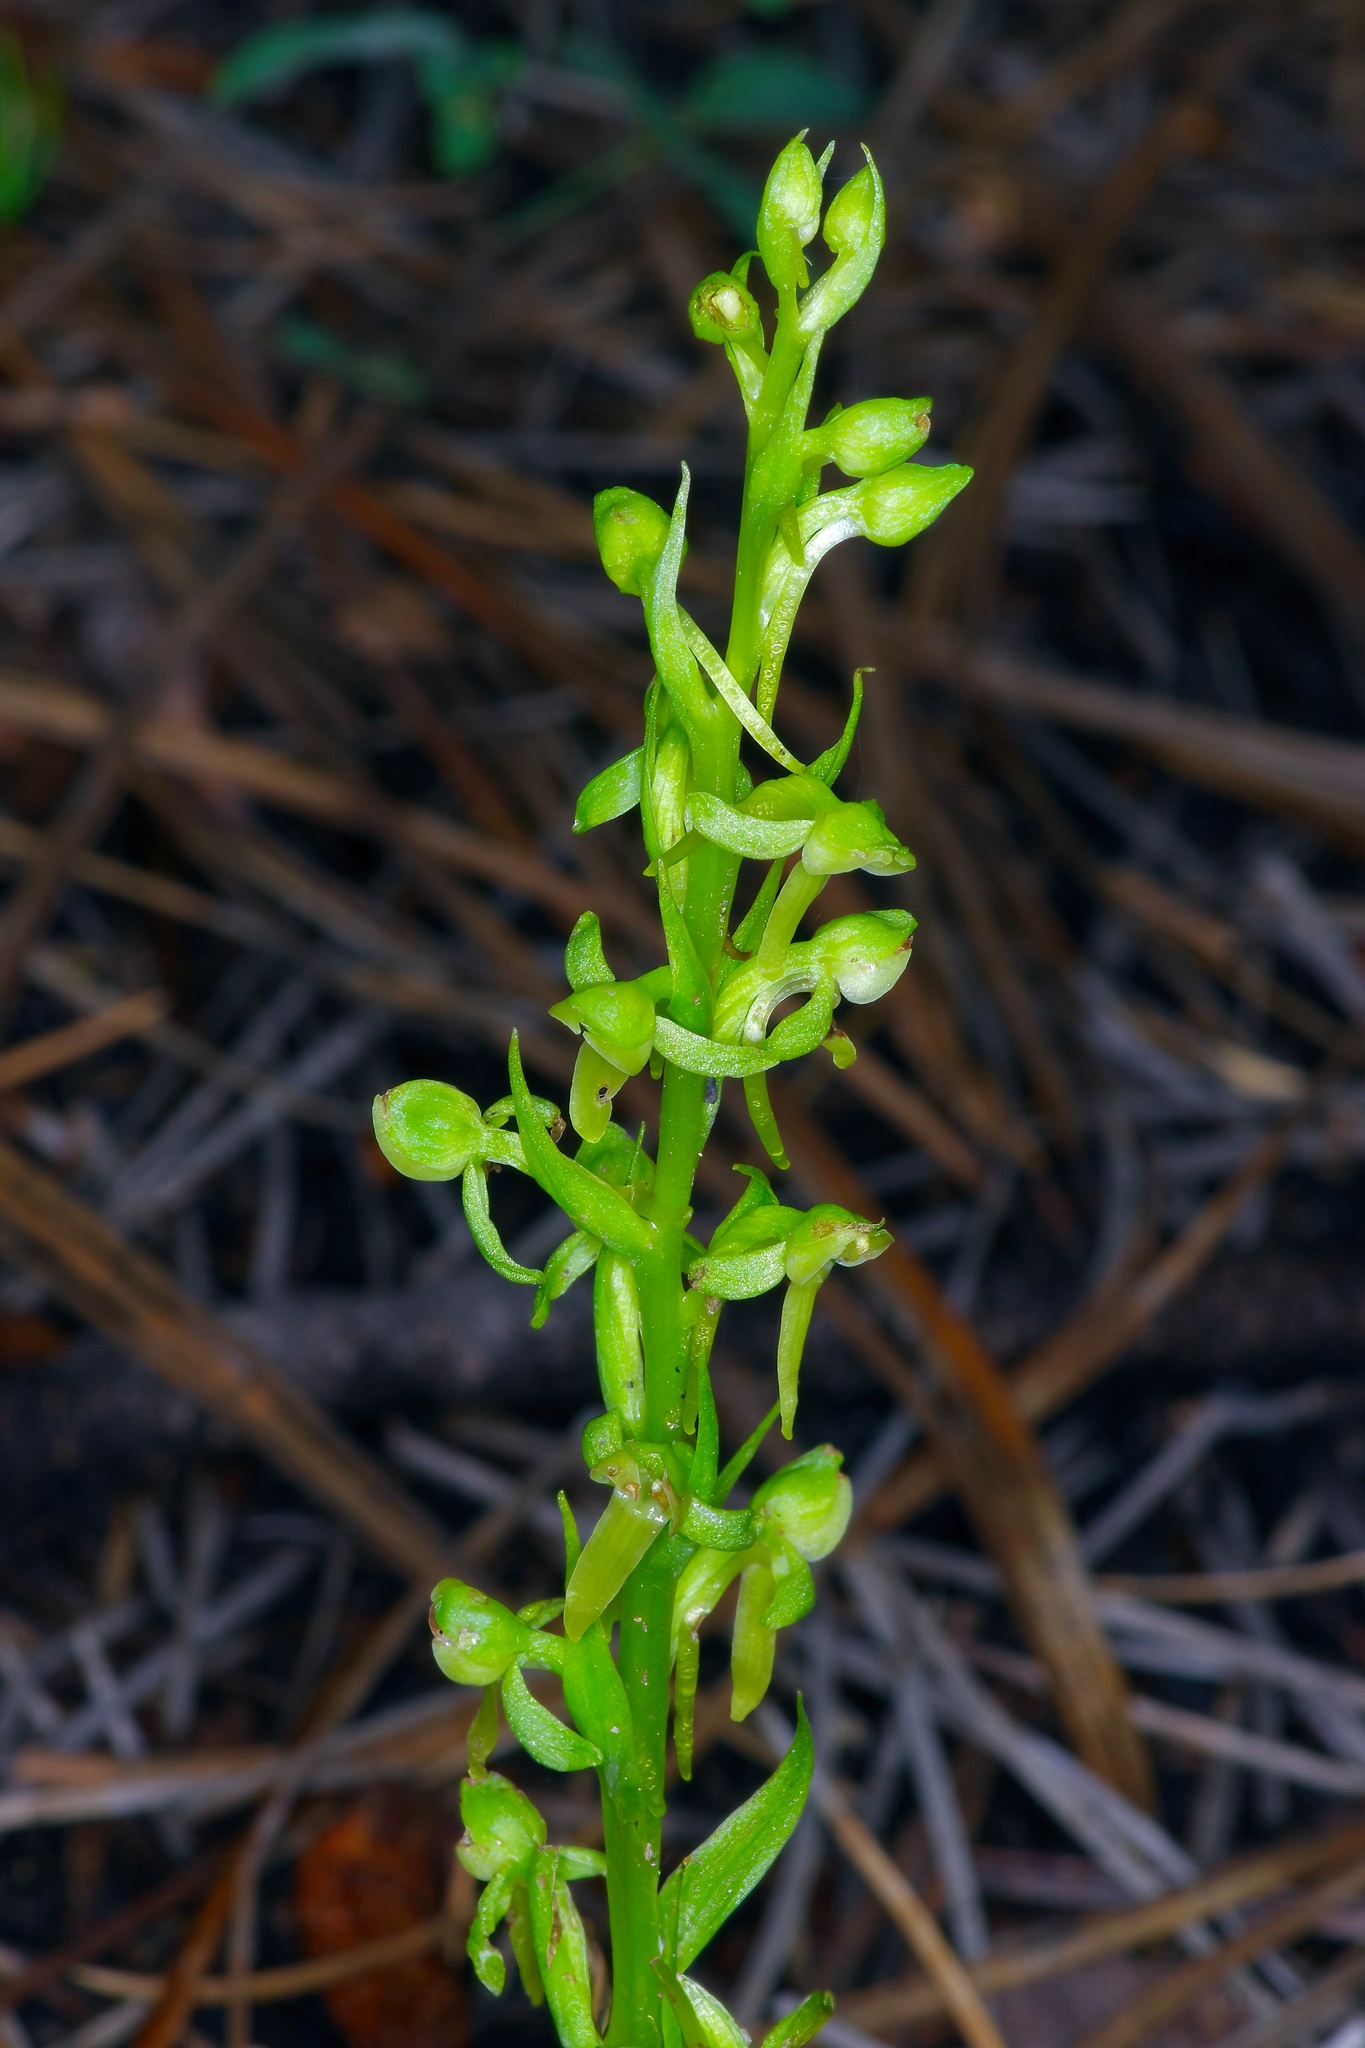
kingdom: Plantae
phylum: Tracheophyta
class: Liliopsida
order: Asparagales
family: Orchidaceae
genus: Platanthera
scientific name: Platanthera brevifolia
